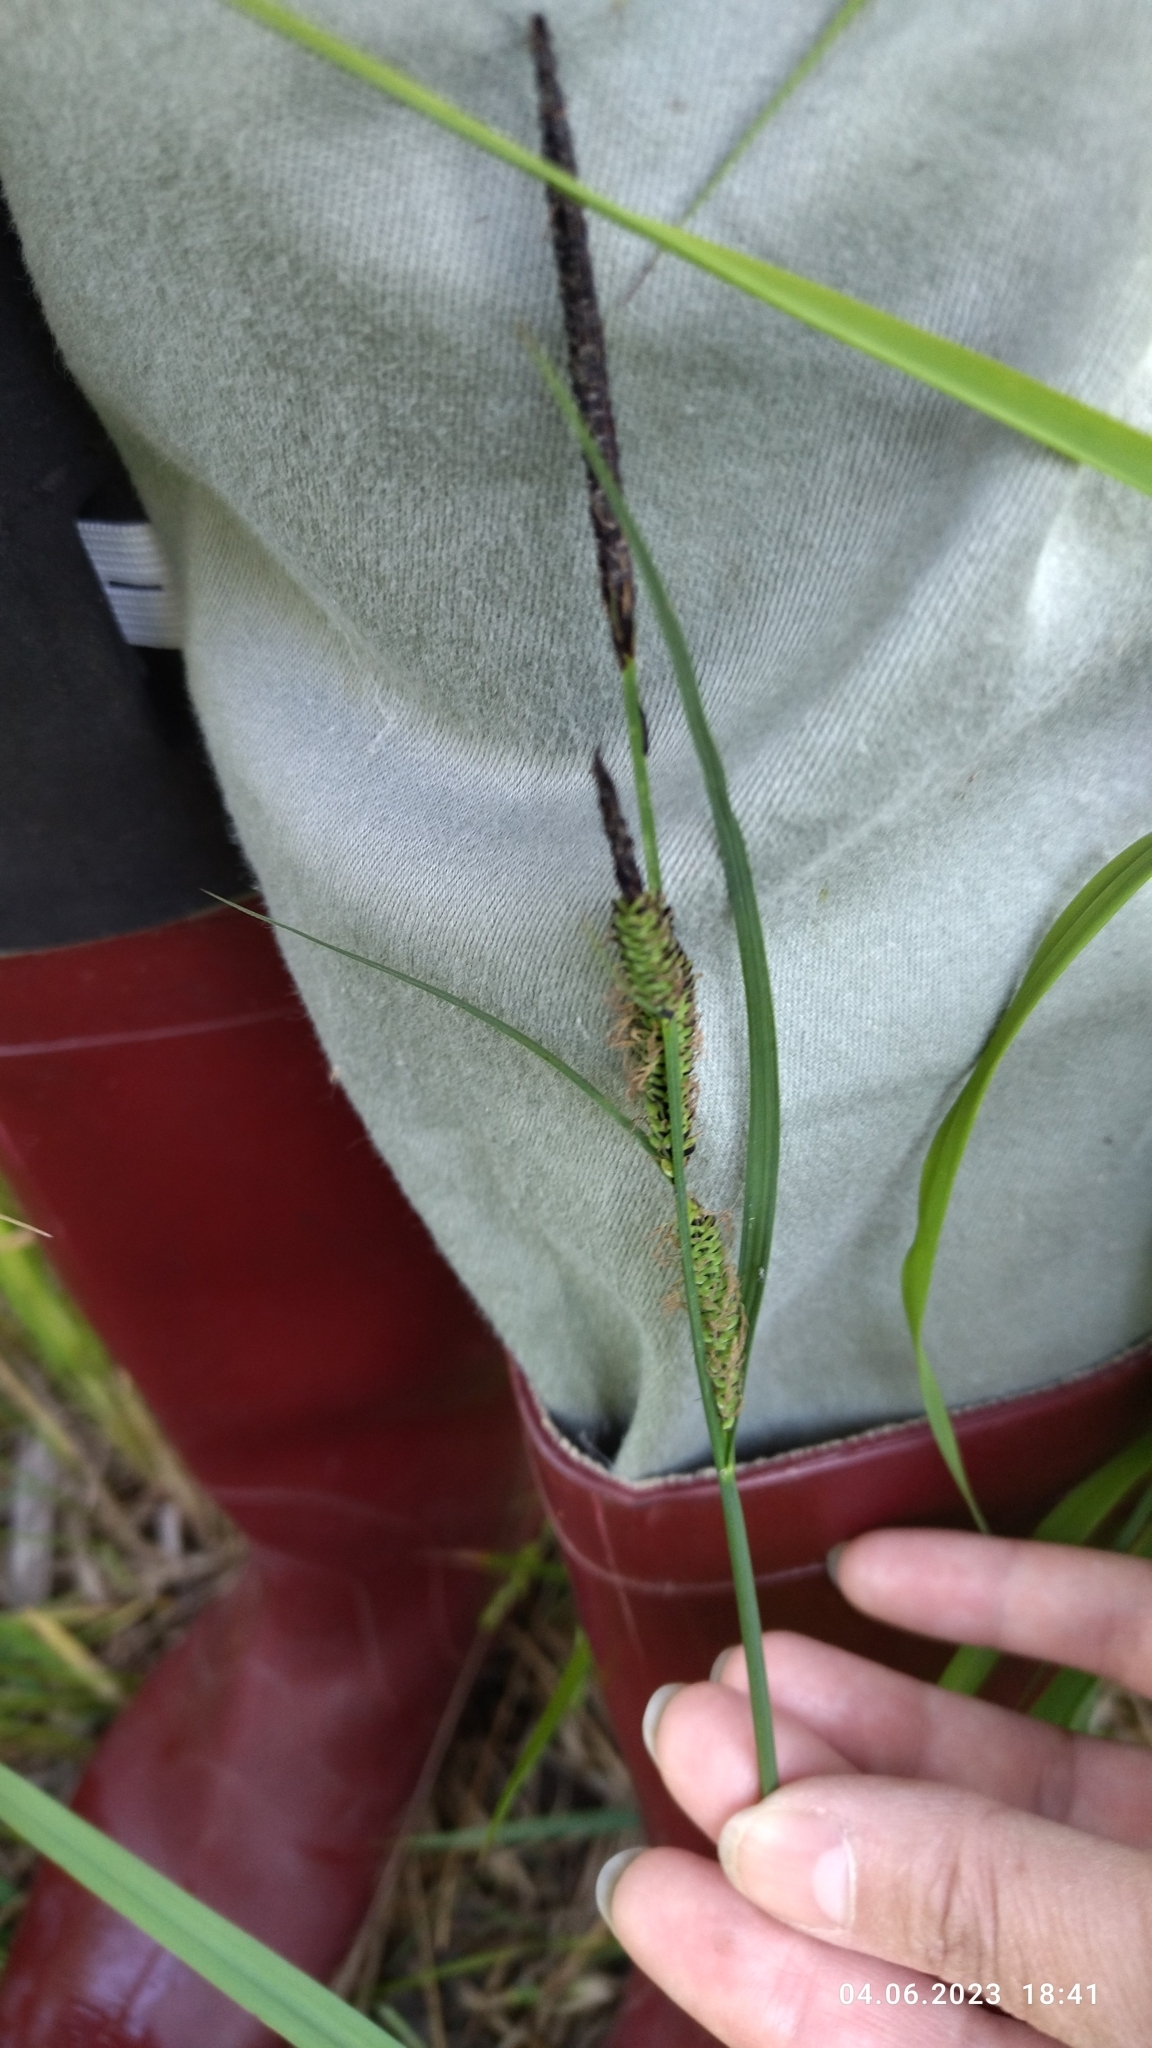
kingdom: Plantae
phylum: Tracheophyta
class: Liliopsida
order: Poales
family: Cyperaceae
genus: Carex
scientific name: Carex nigra
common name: Common sedge
